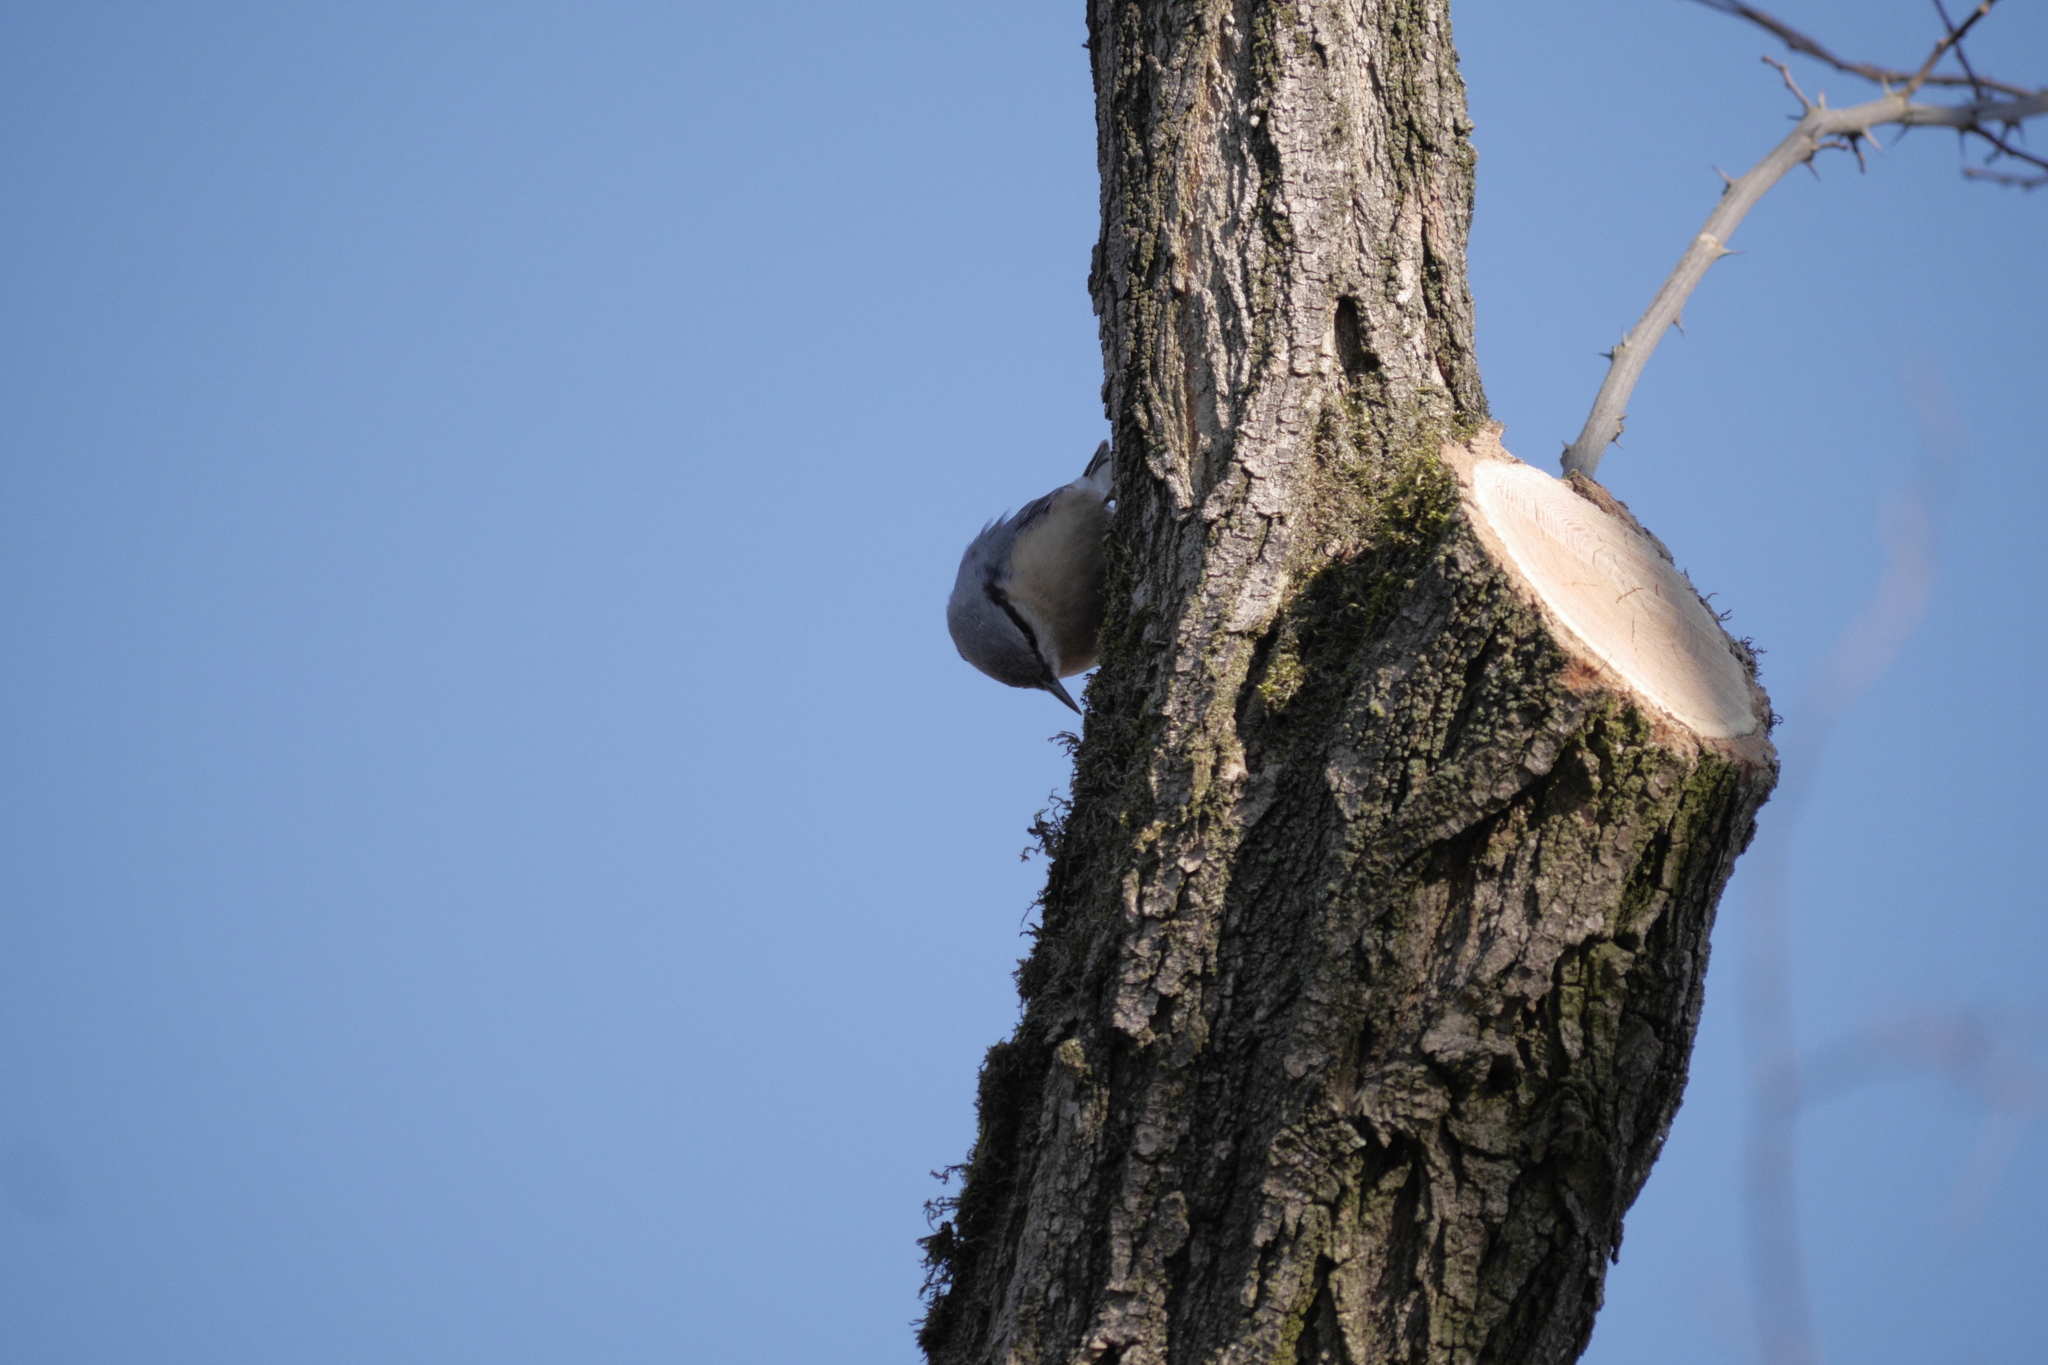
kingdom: Animalia
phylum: Chordata
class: Aves
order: Passeriformes
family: Sittidae
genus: Sitta
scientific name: Sitta europaea
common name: Eurasian nuthatch
